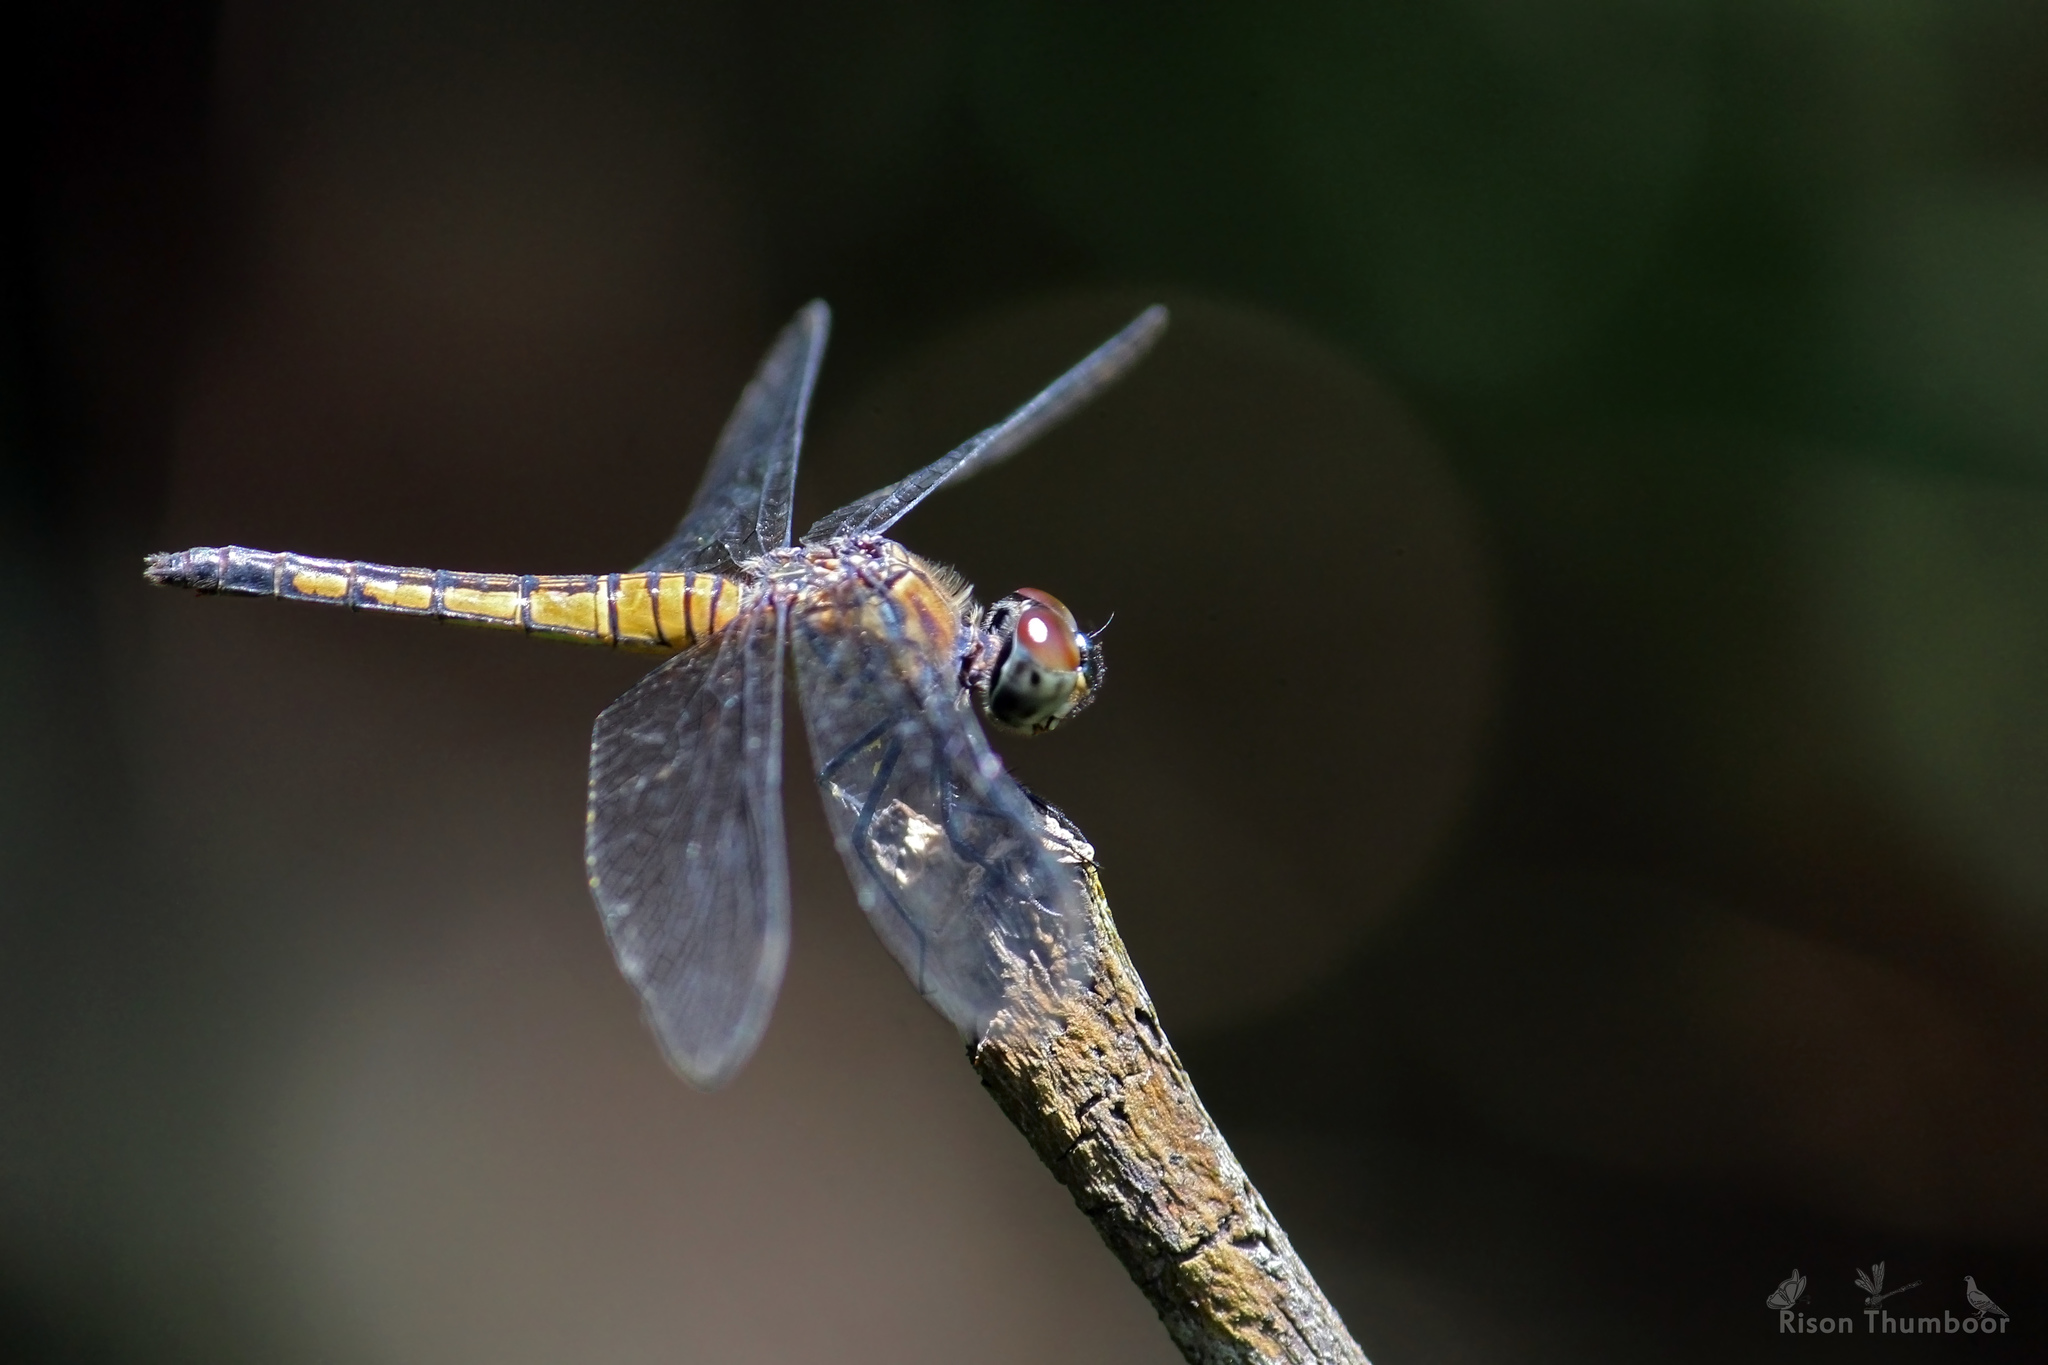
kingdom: Animalia
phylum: Arthropoda
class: Insecta
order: Odonata
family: Libellulidae
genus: Brachydiplax
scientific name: Brachydiplax chalybea
